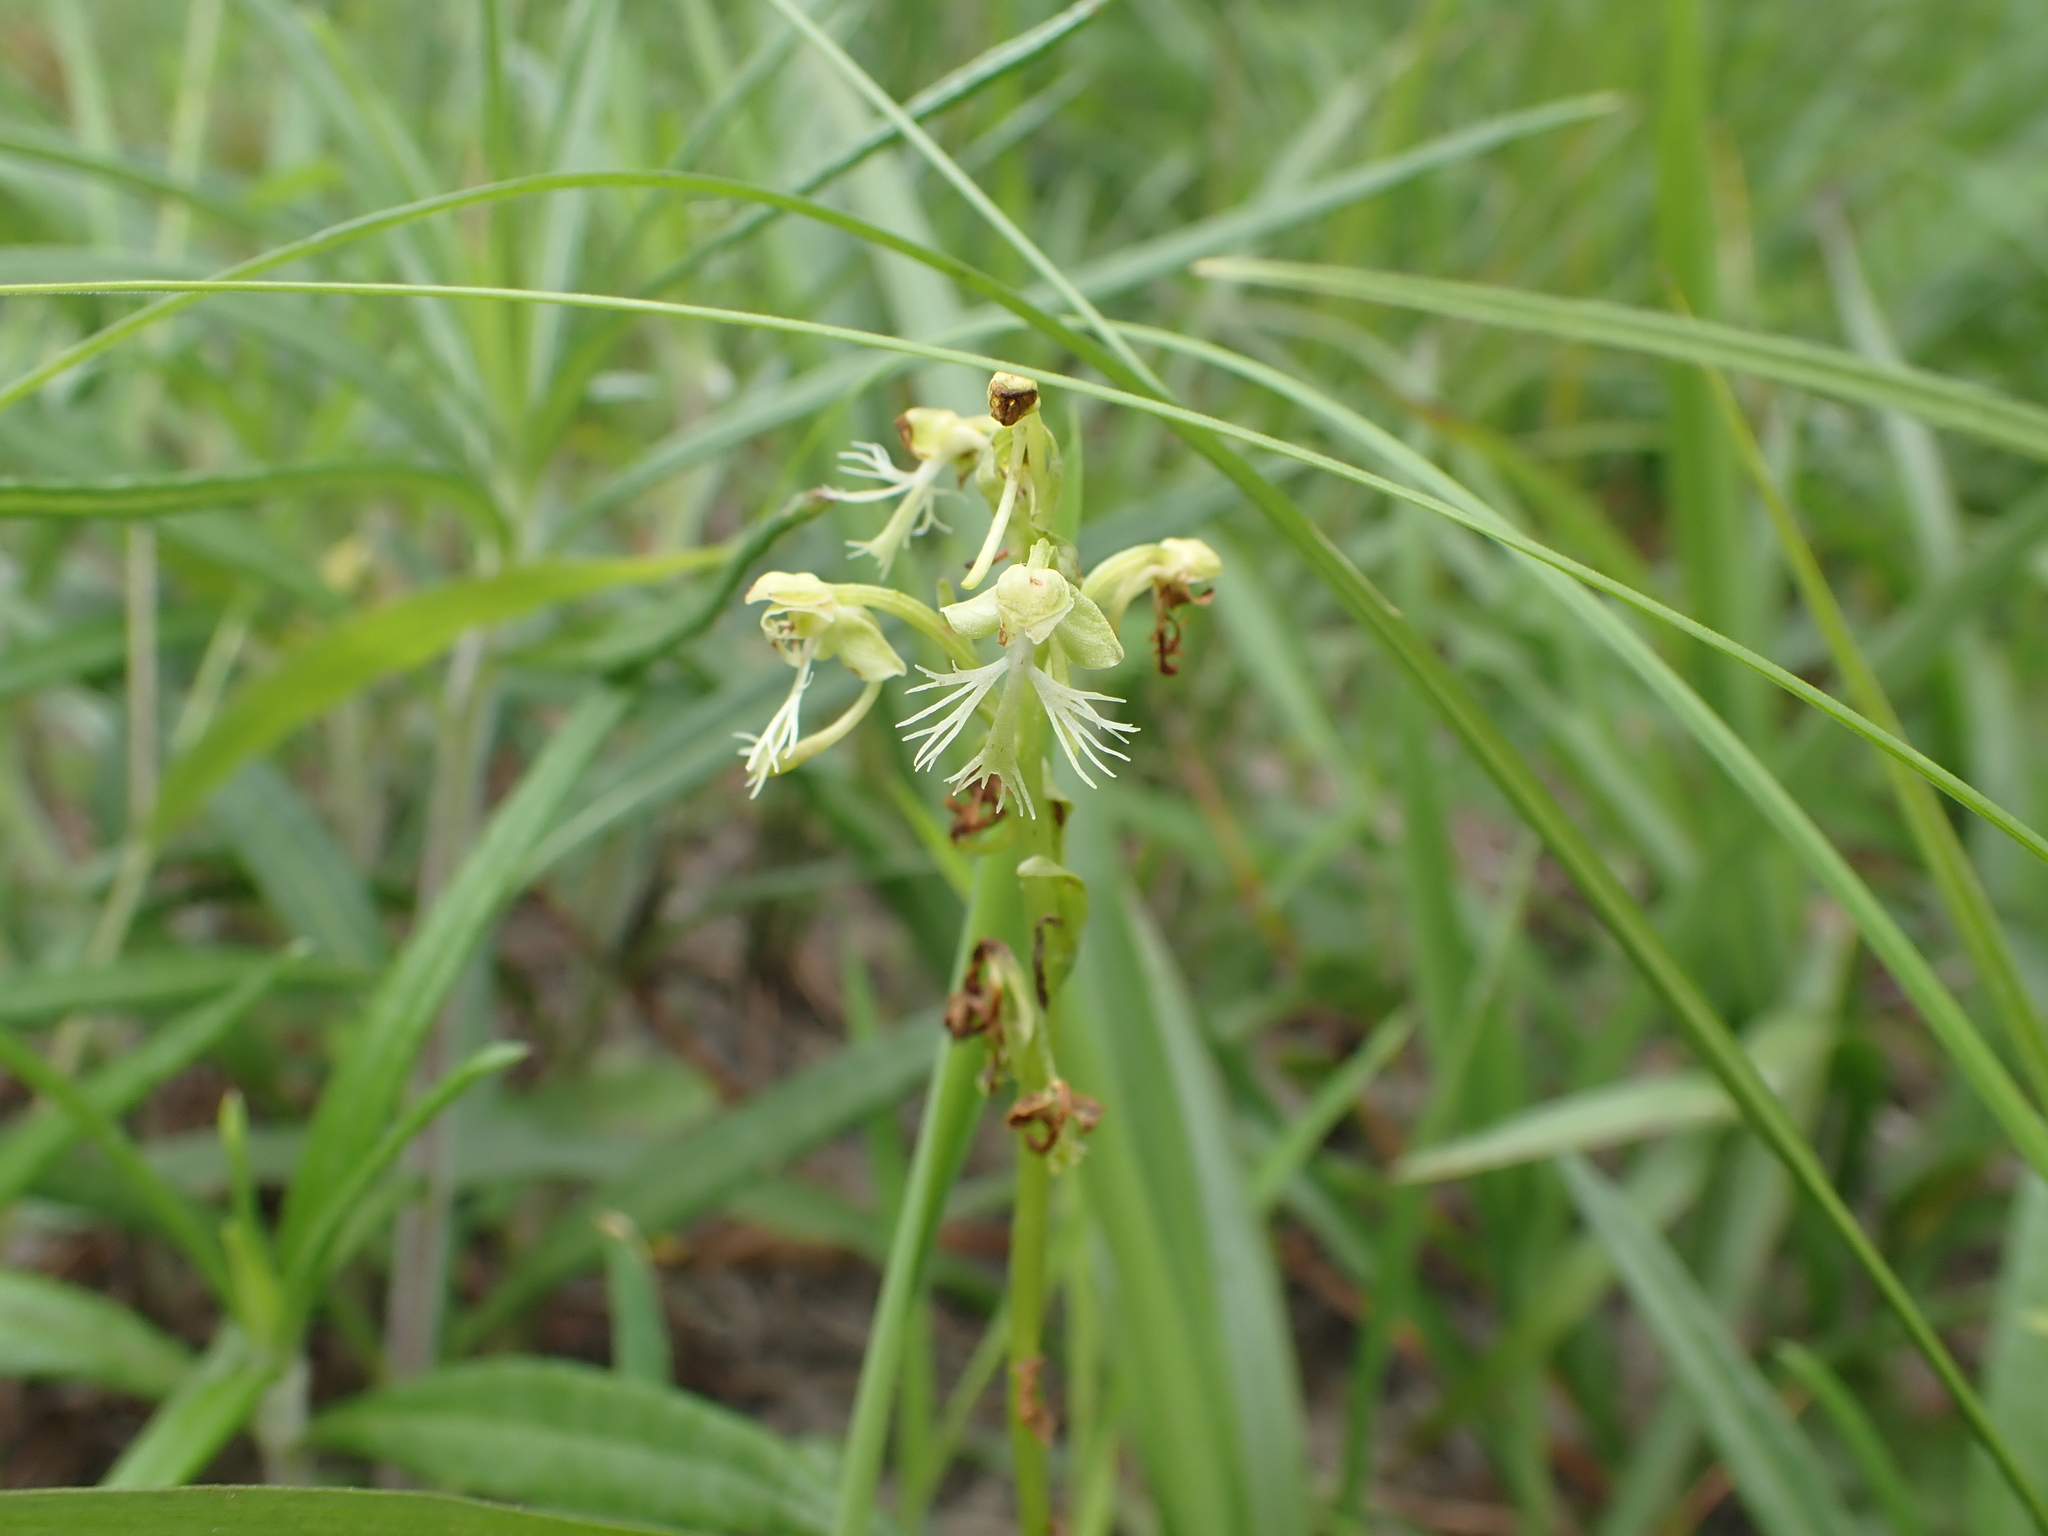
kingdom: Plantae
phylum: Tracheophyta
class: Liliopsida
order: Asparagales
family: Orchidaceae
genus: Platanthera
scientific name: Platanthera lacera
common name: Green fringed orchid
